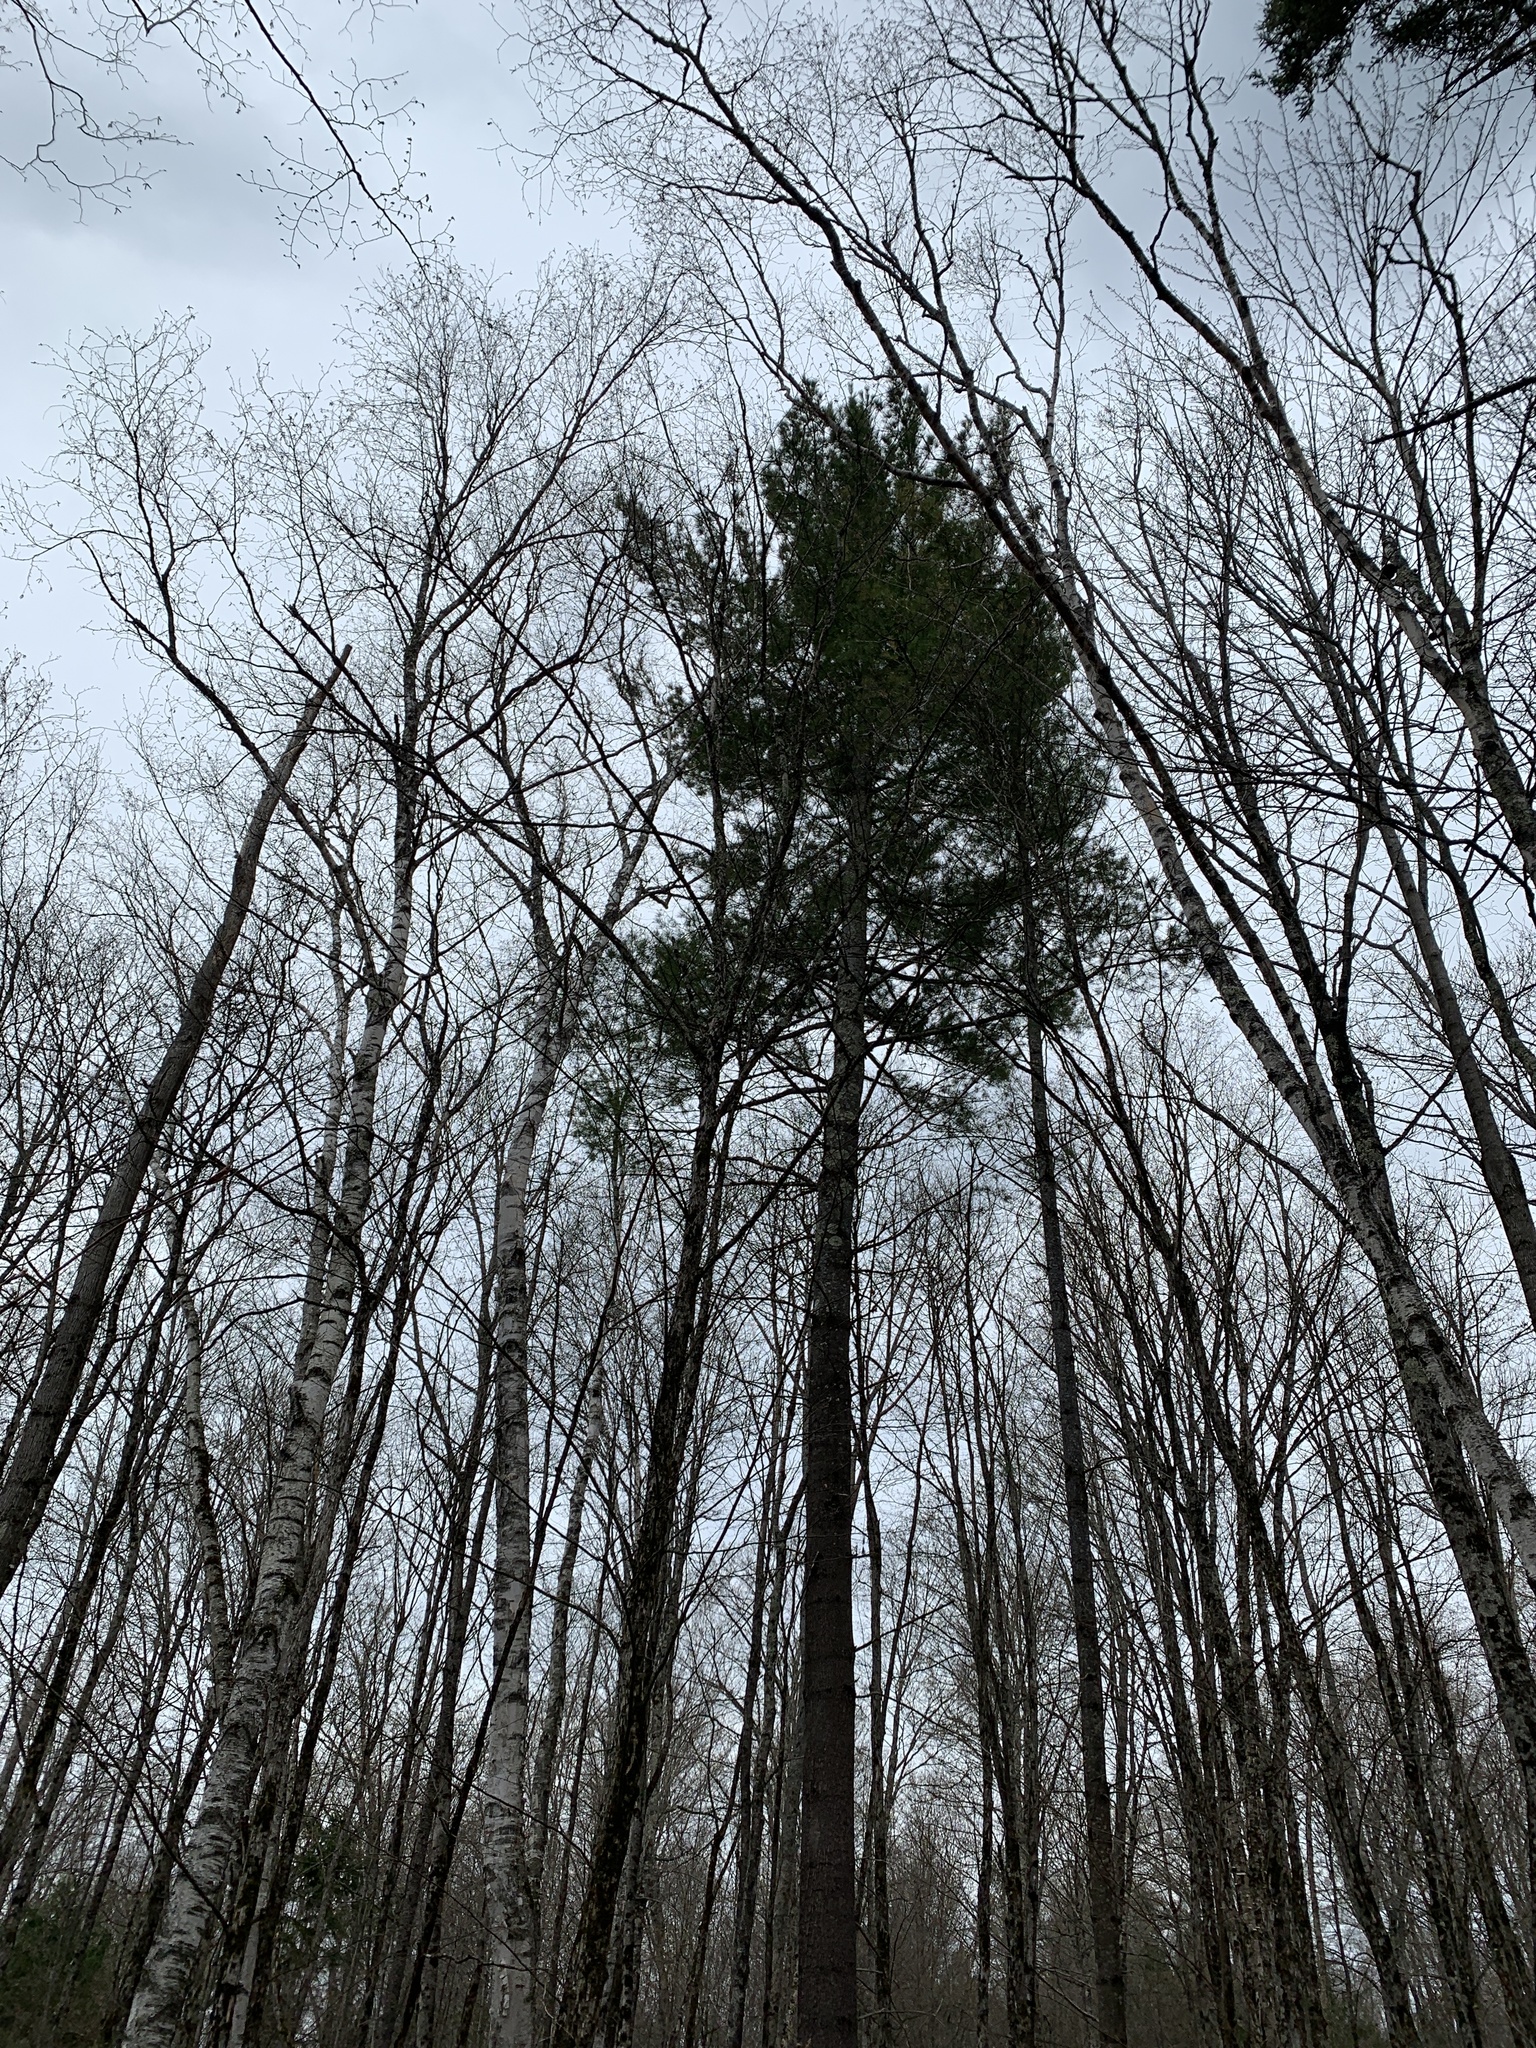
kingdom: Plantae
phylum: Tracheophyta
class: Pinopsida
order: Pinales
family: Pinaceae
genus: Pinus
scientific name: Pinus strobus
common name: Weymouth pine
